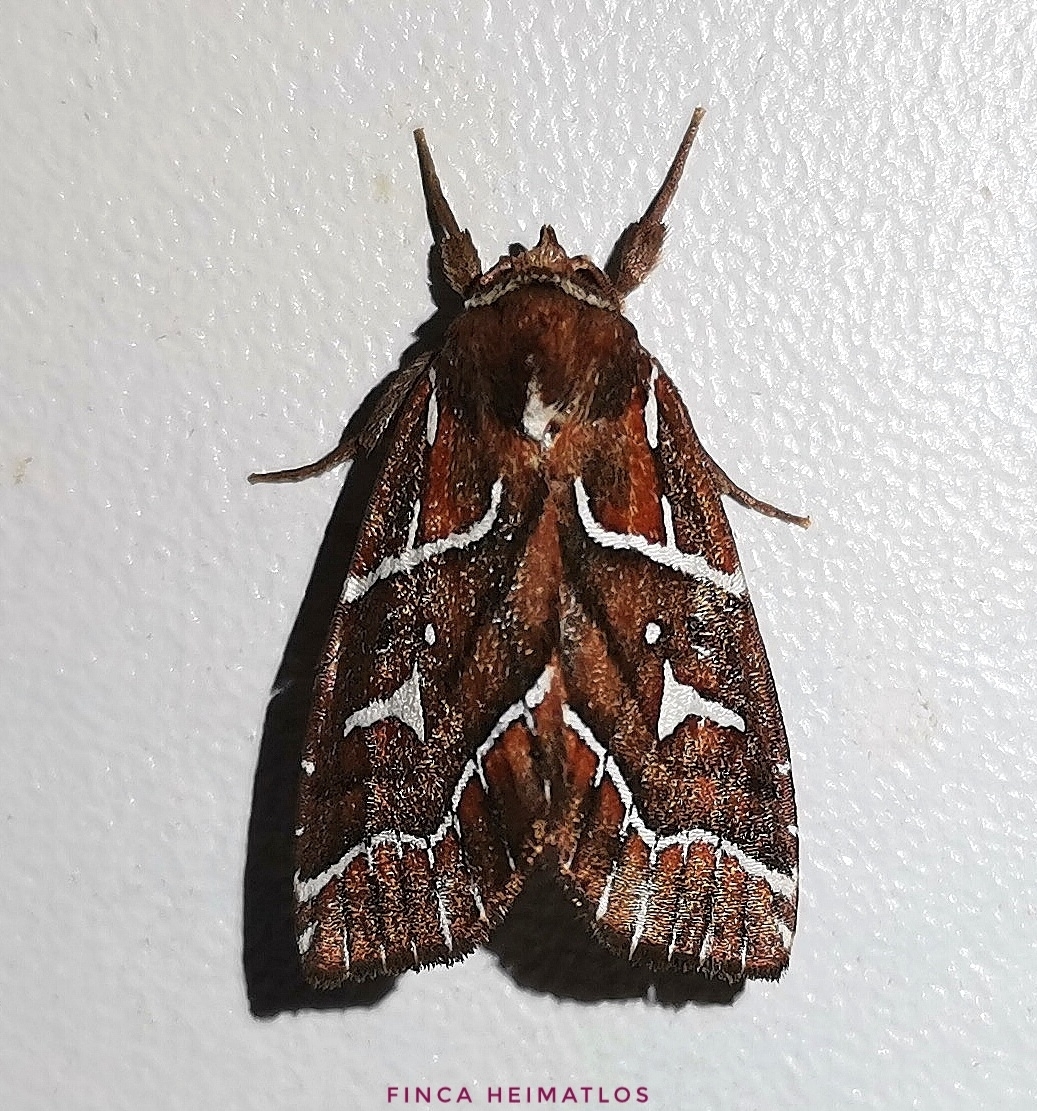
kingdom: Animalia
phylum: Arthropoda
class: Insecta
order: Lepidoptera
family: Noctuidae
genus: Selambina
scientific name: Selambina trajiciens
